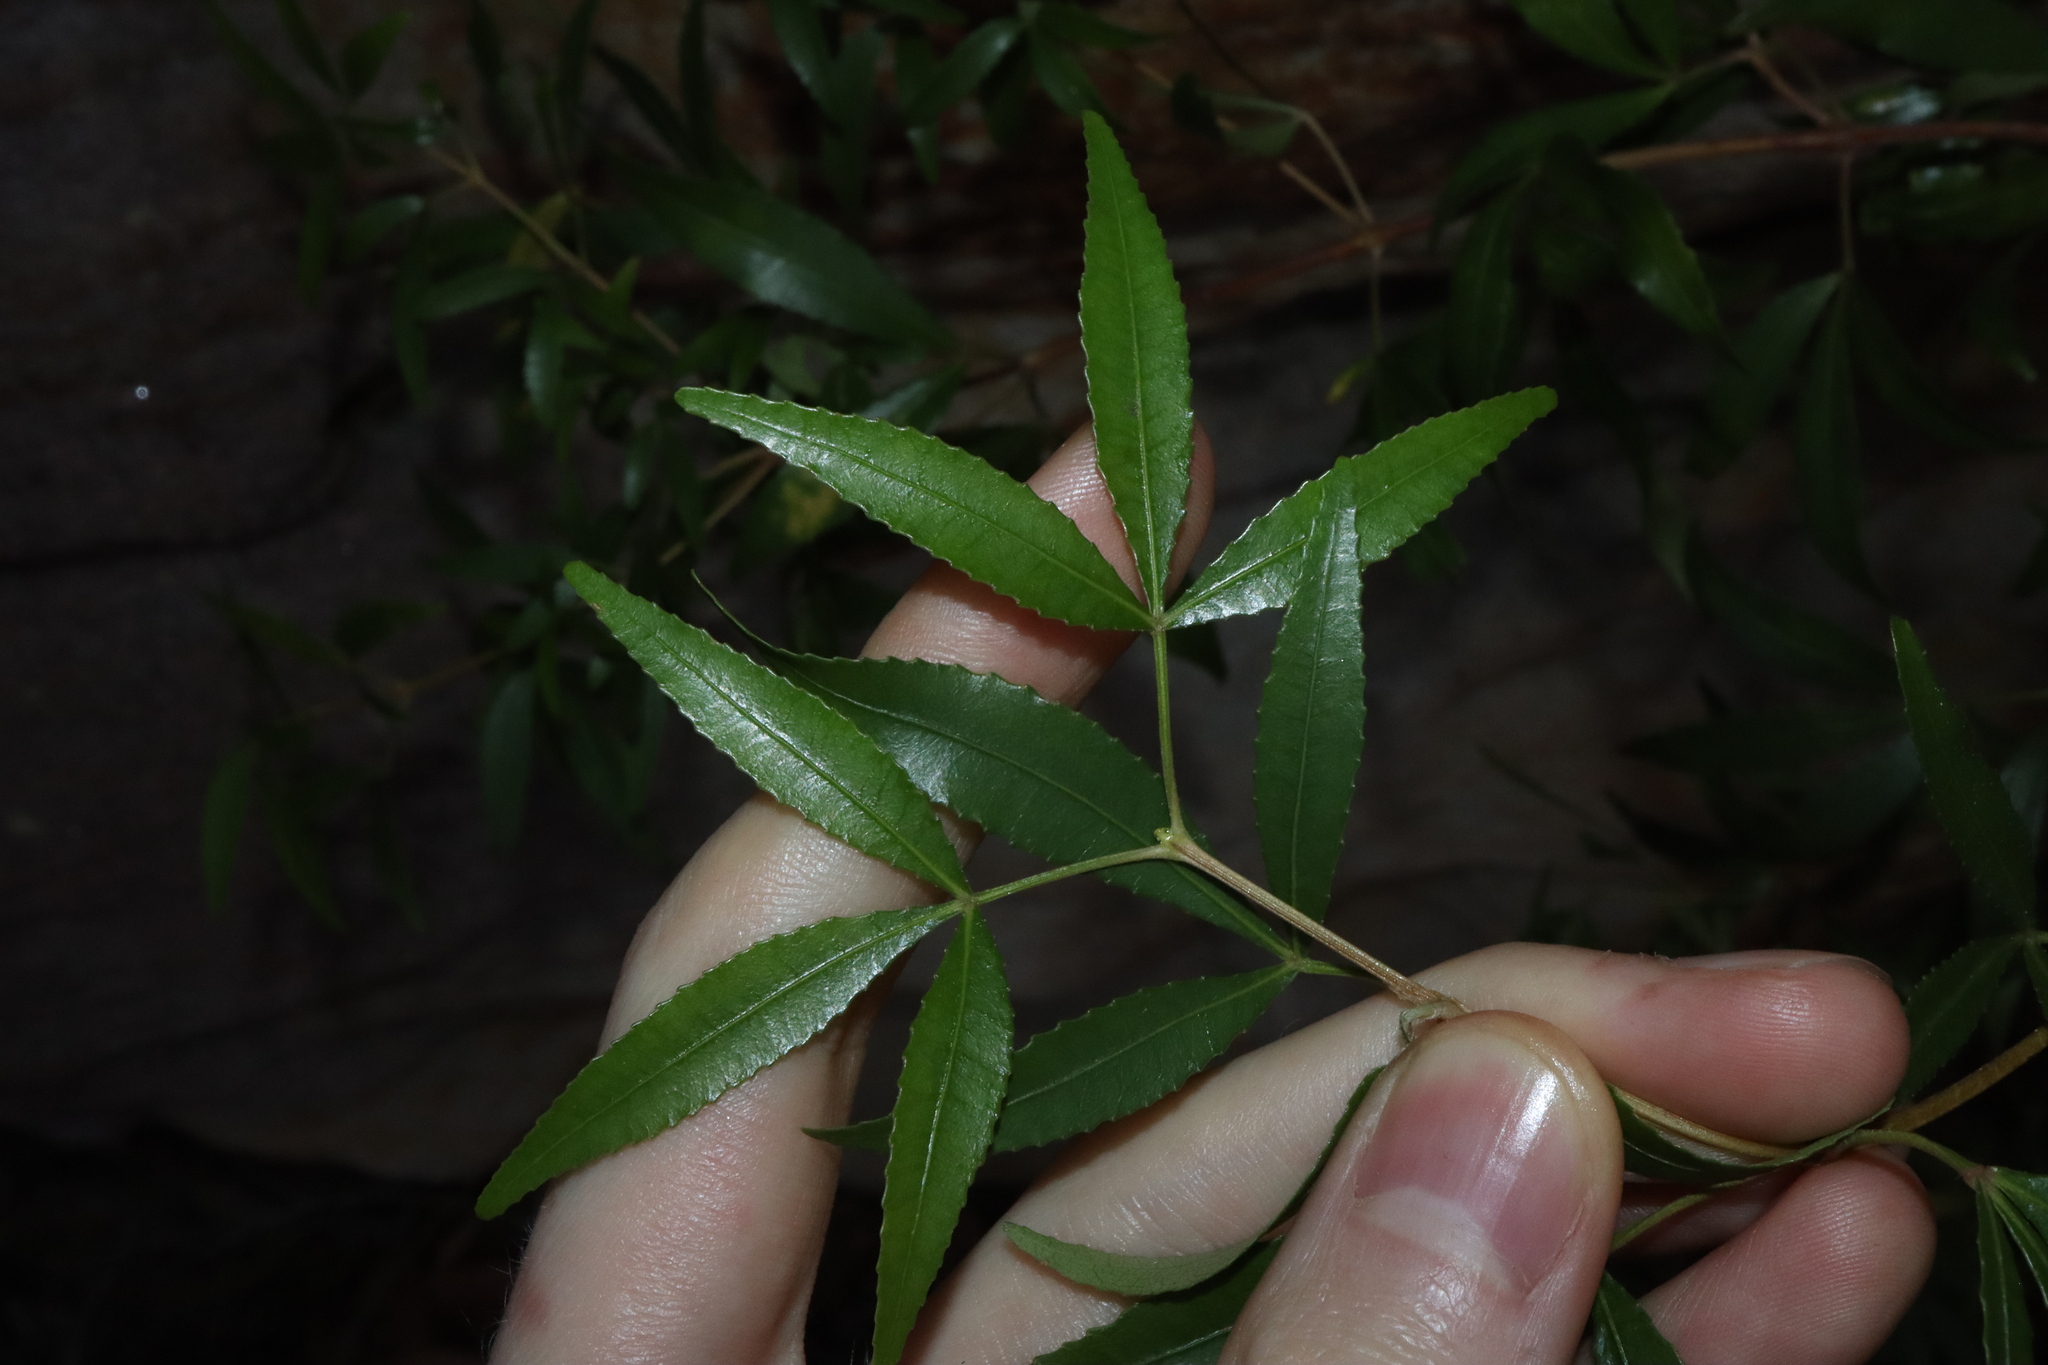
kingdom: Plantae
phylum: Tracheophyta
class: Magnoliopsida
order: Oxalidales
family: Cunoniaceae
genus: Ceratopetalum
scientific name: Ceratopetalum gummiferum
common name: Christmasbush
